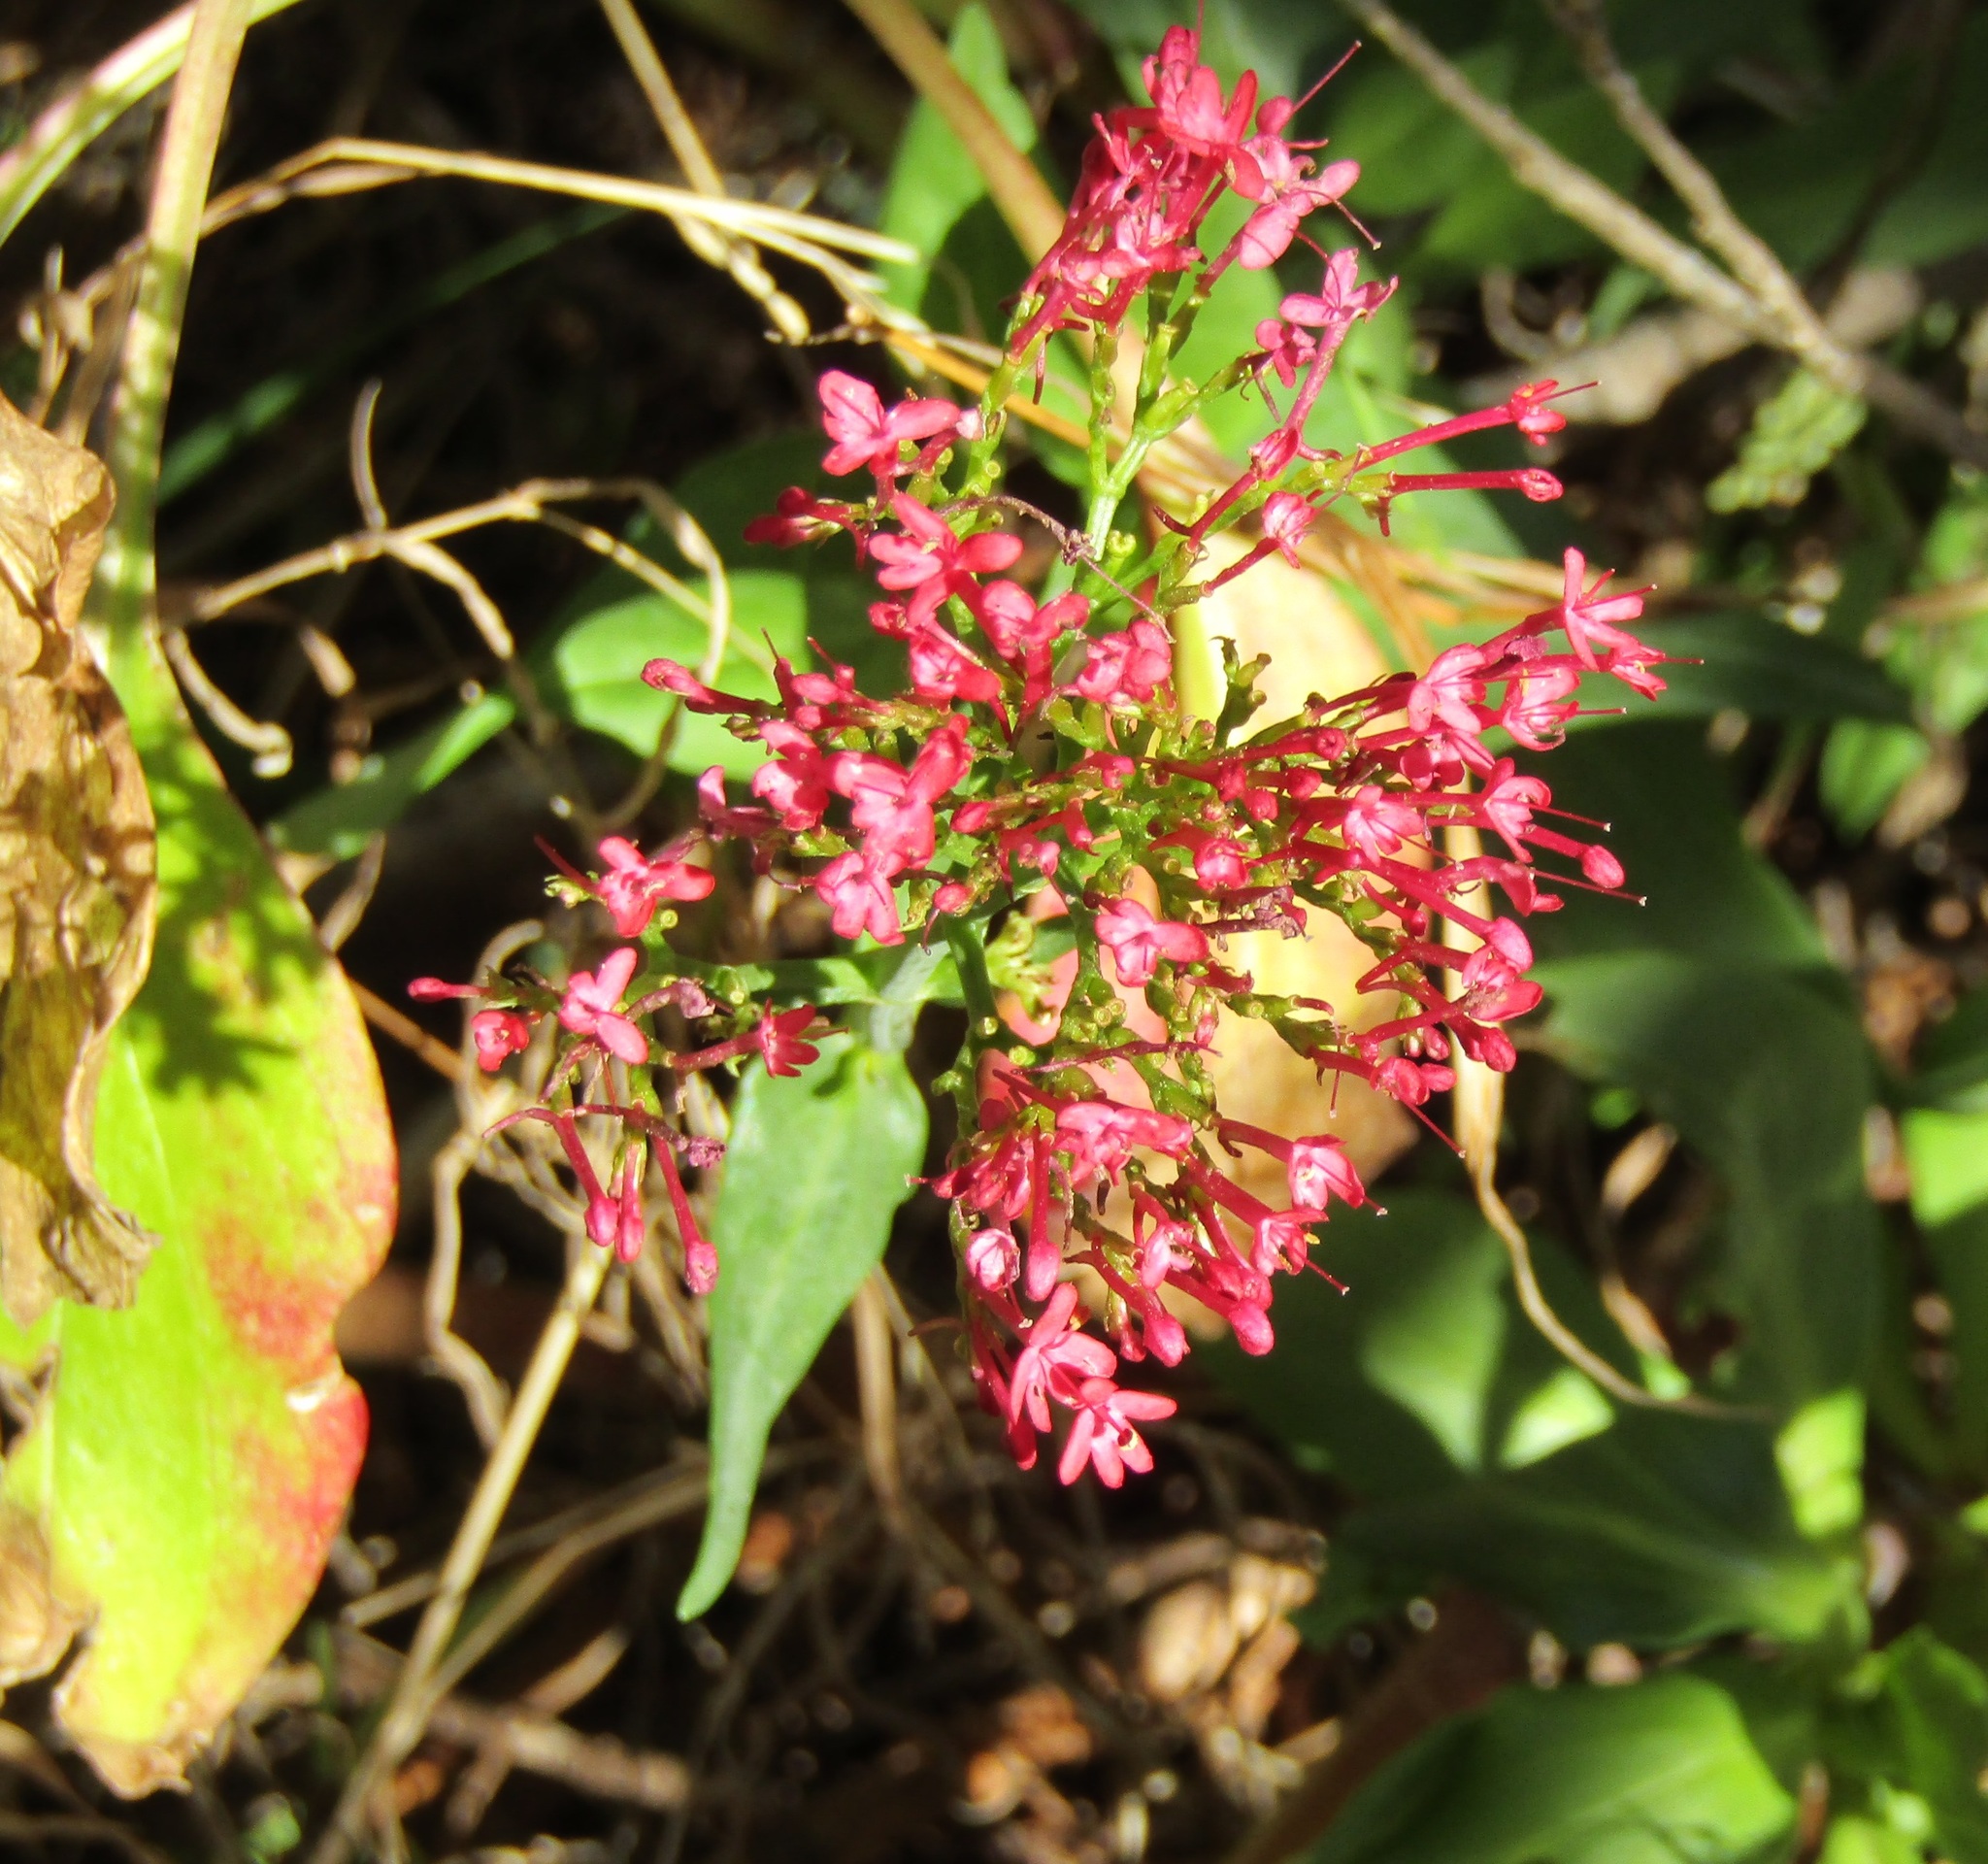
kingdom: Plantae
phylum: Tracheophyta
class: Magnoliopsida
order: Dipsacales
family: Caprifoliaceae
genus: Centranthus
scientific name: Centranthus ruber
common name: Red valerian
